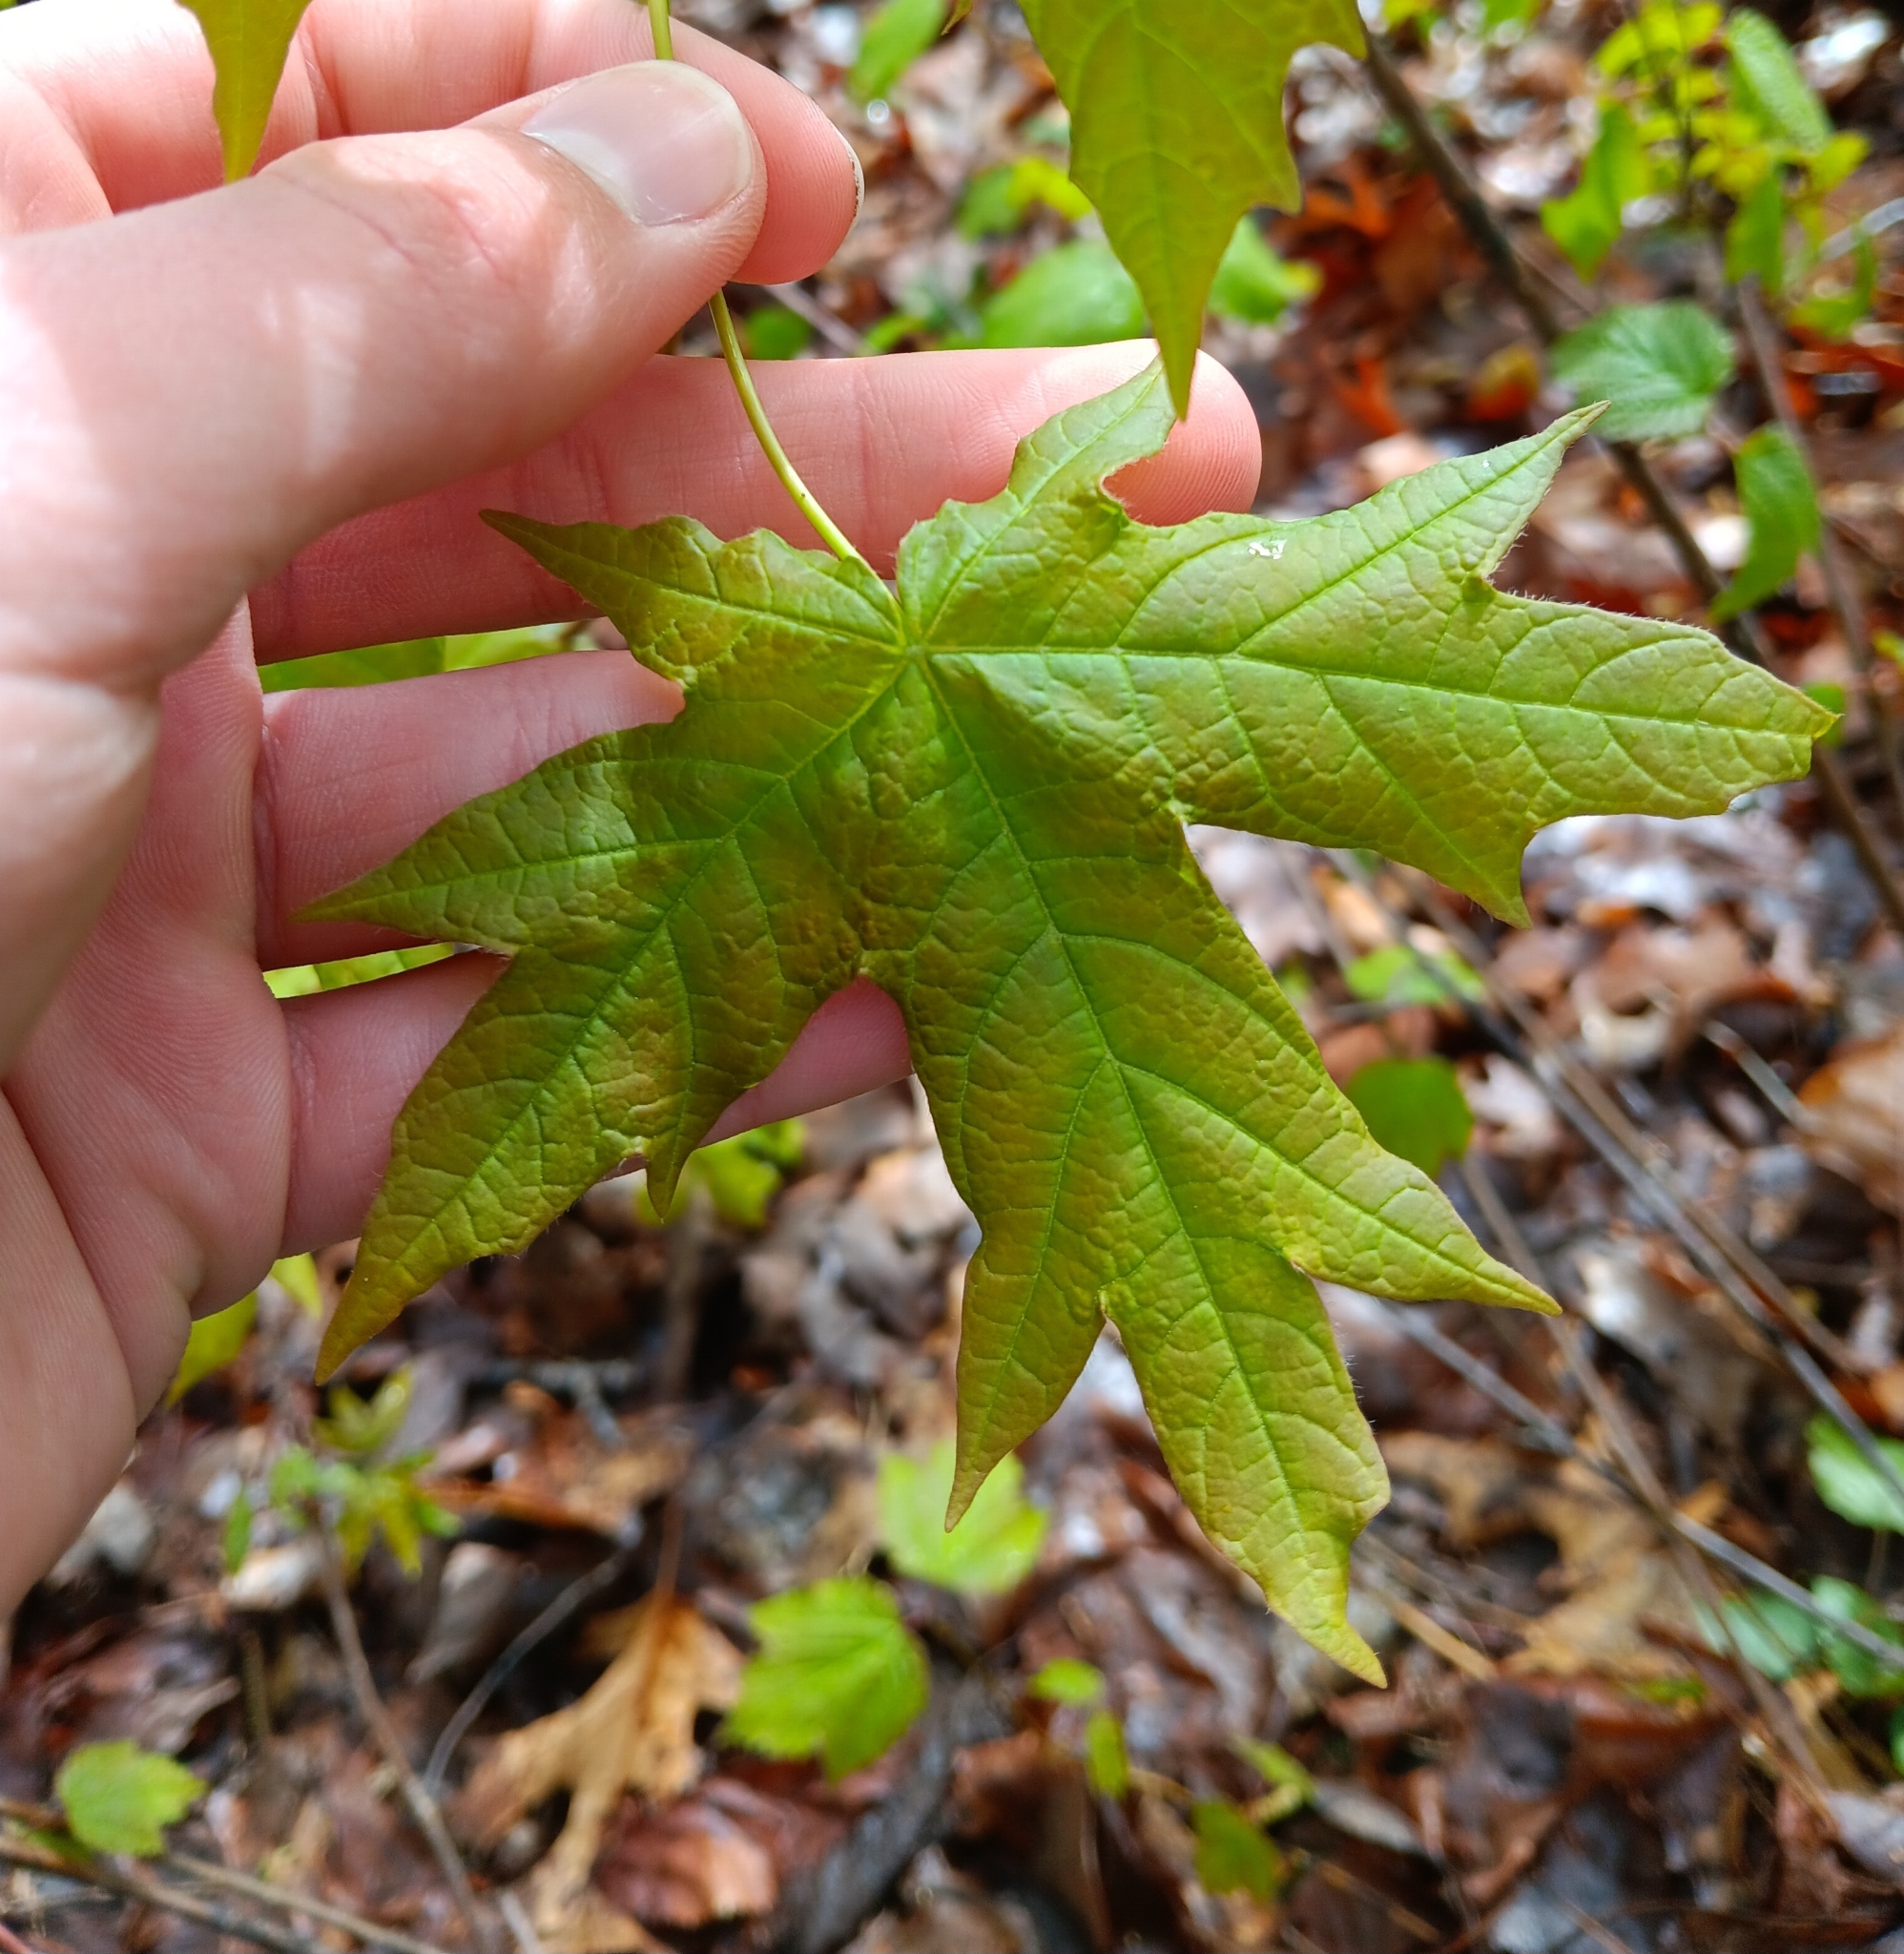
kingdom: Plantae
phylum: Tracheophyta
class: Magnoliopsida
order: Sapindales
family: Sapindaceae
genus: Acer
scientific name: Acer saccharum
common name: Sugar maple
